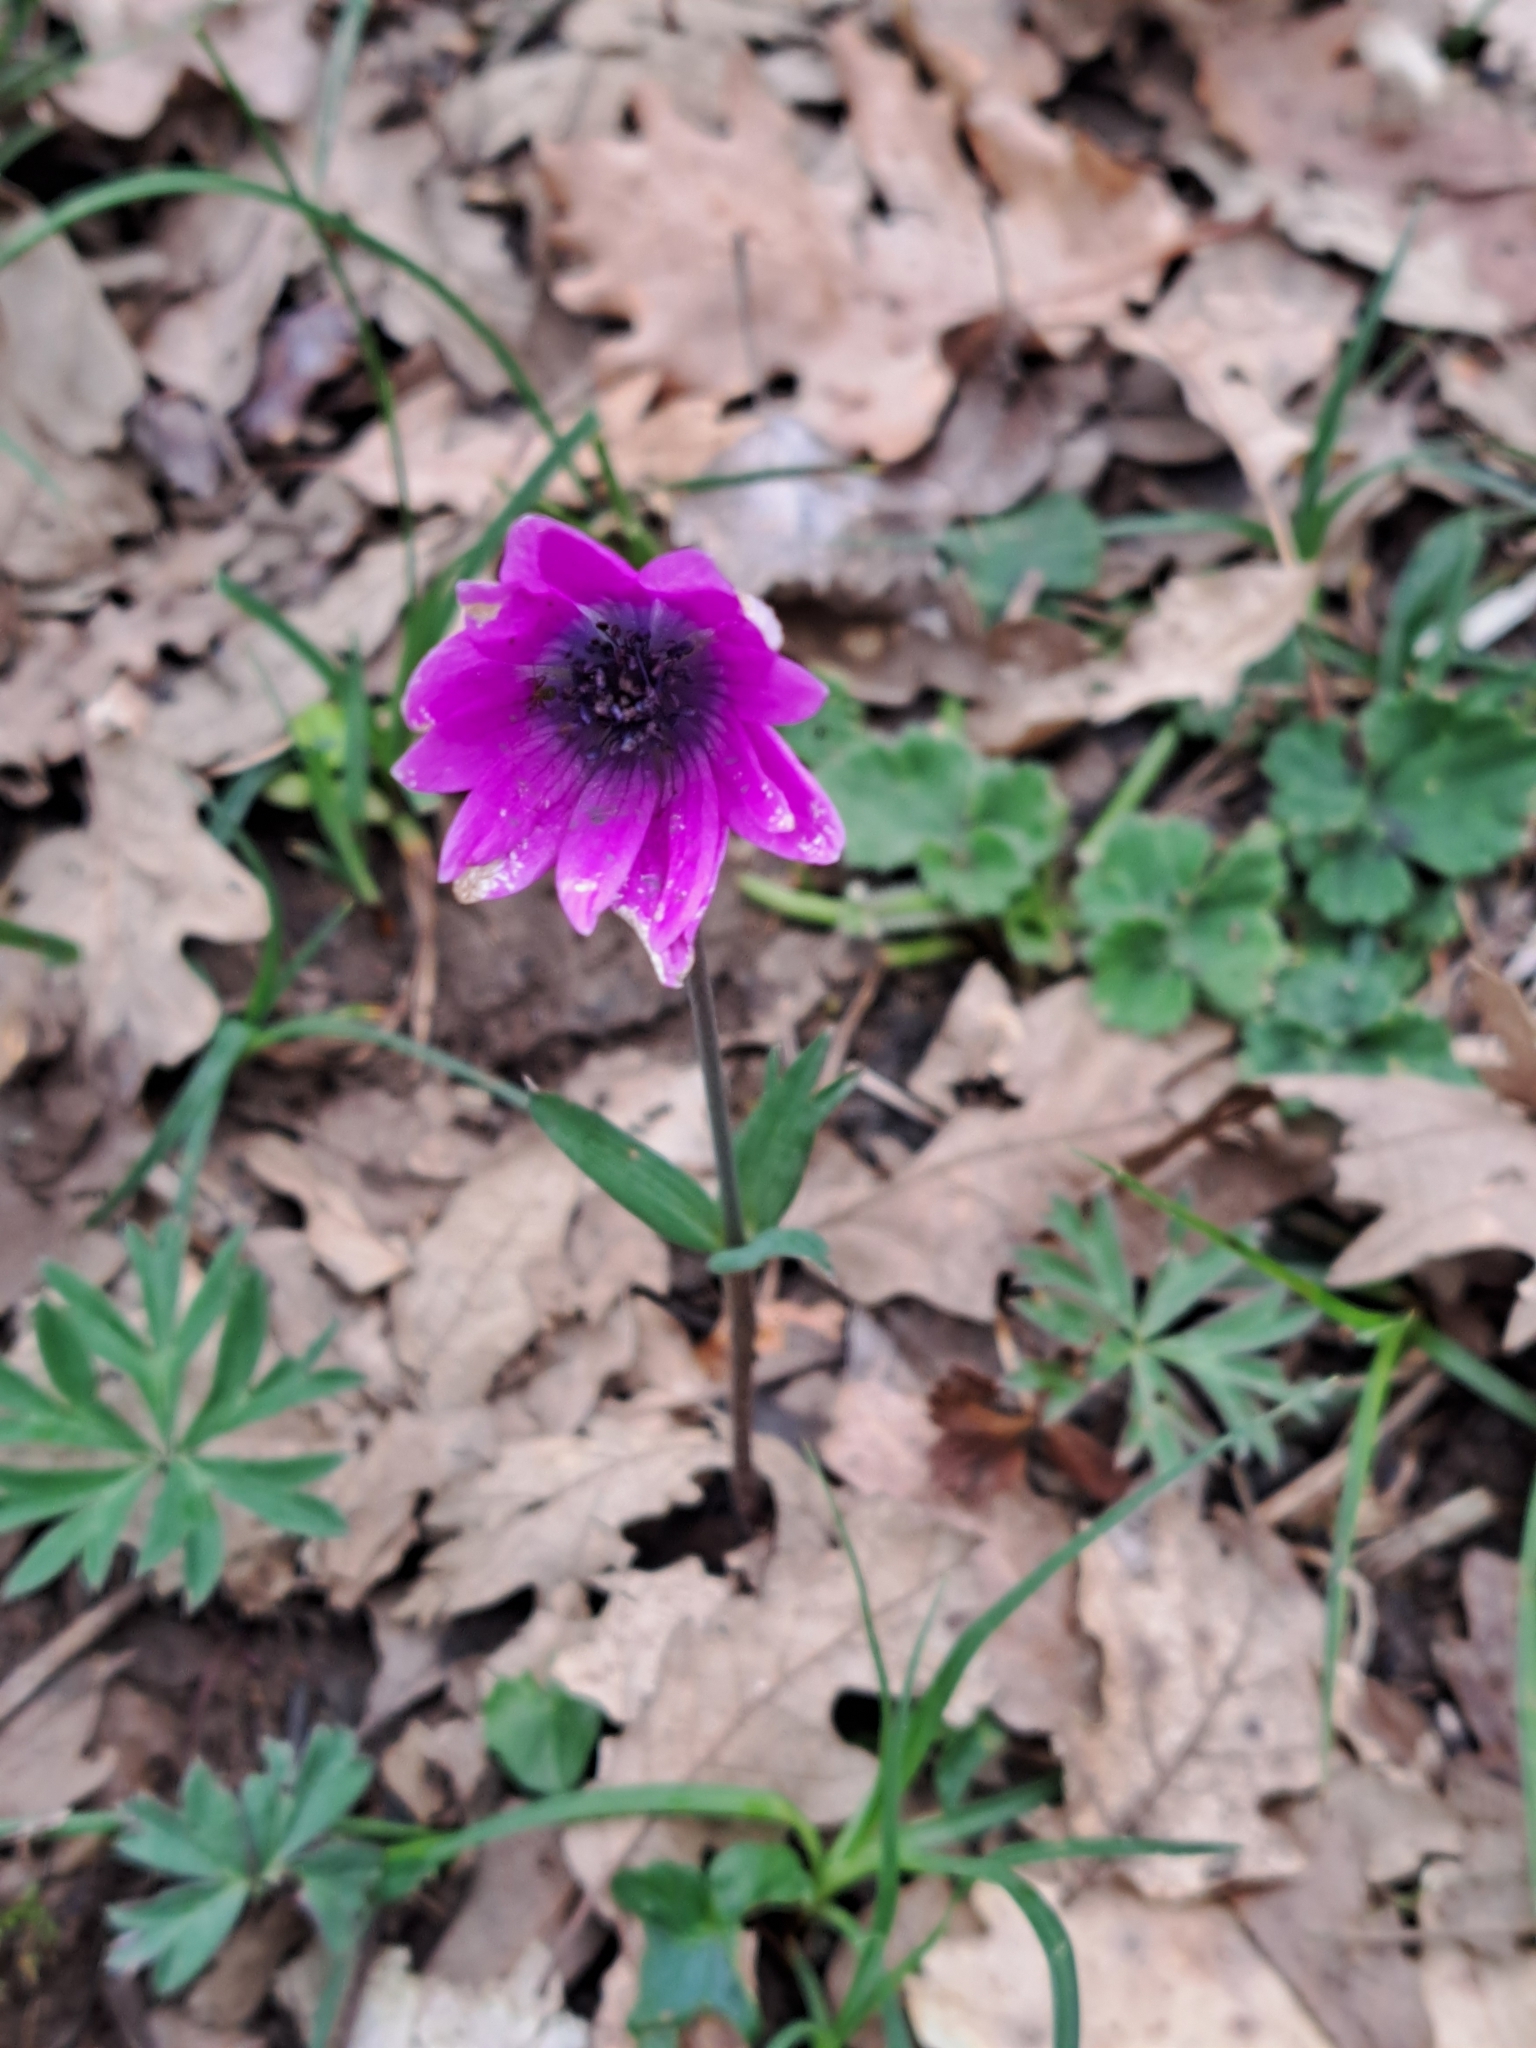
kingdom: Plantae
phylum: Tracheophyta
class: Magnoliopsida
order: Ranunculales
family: Ranunculaceae
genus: Anemone
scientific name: Anemone hortensis
